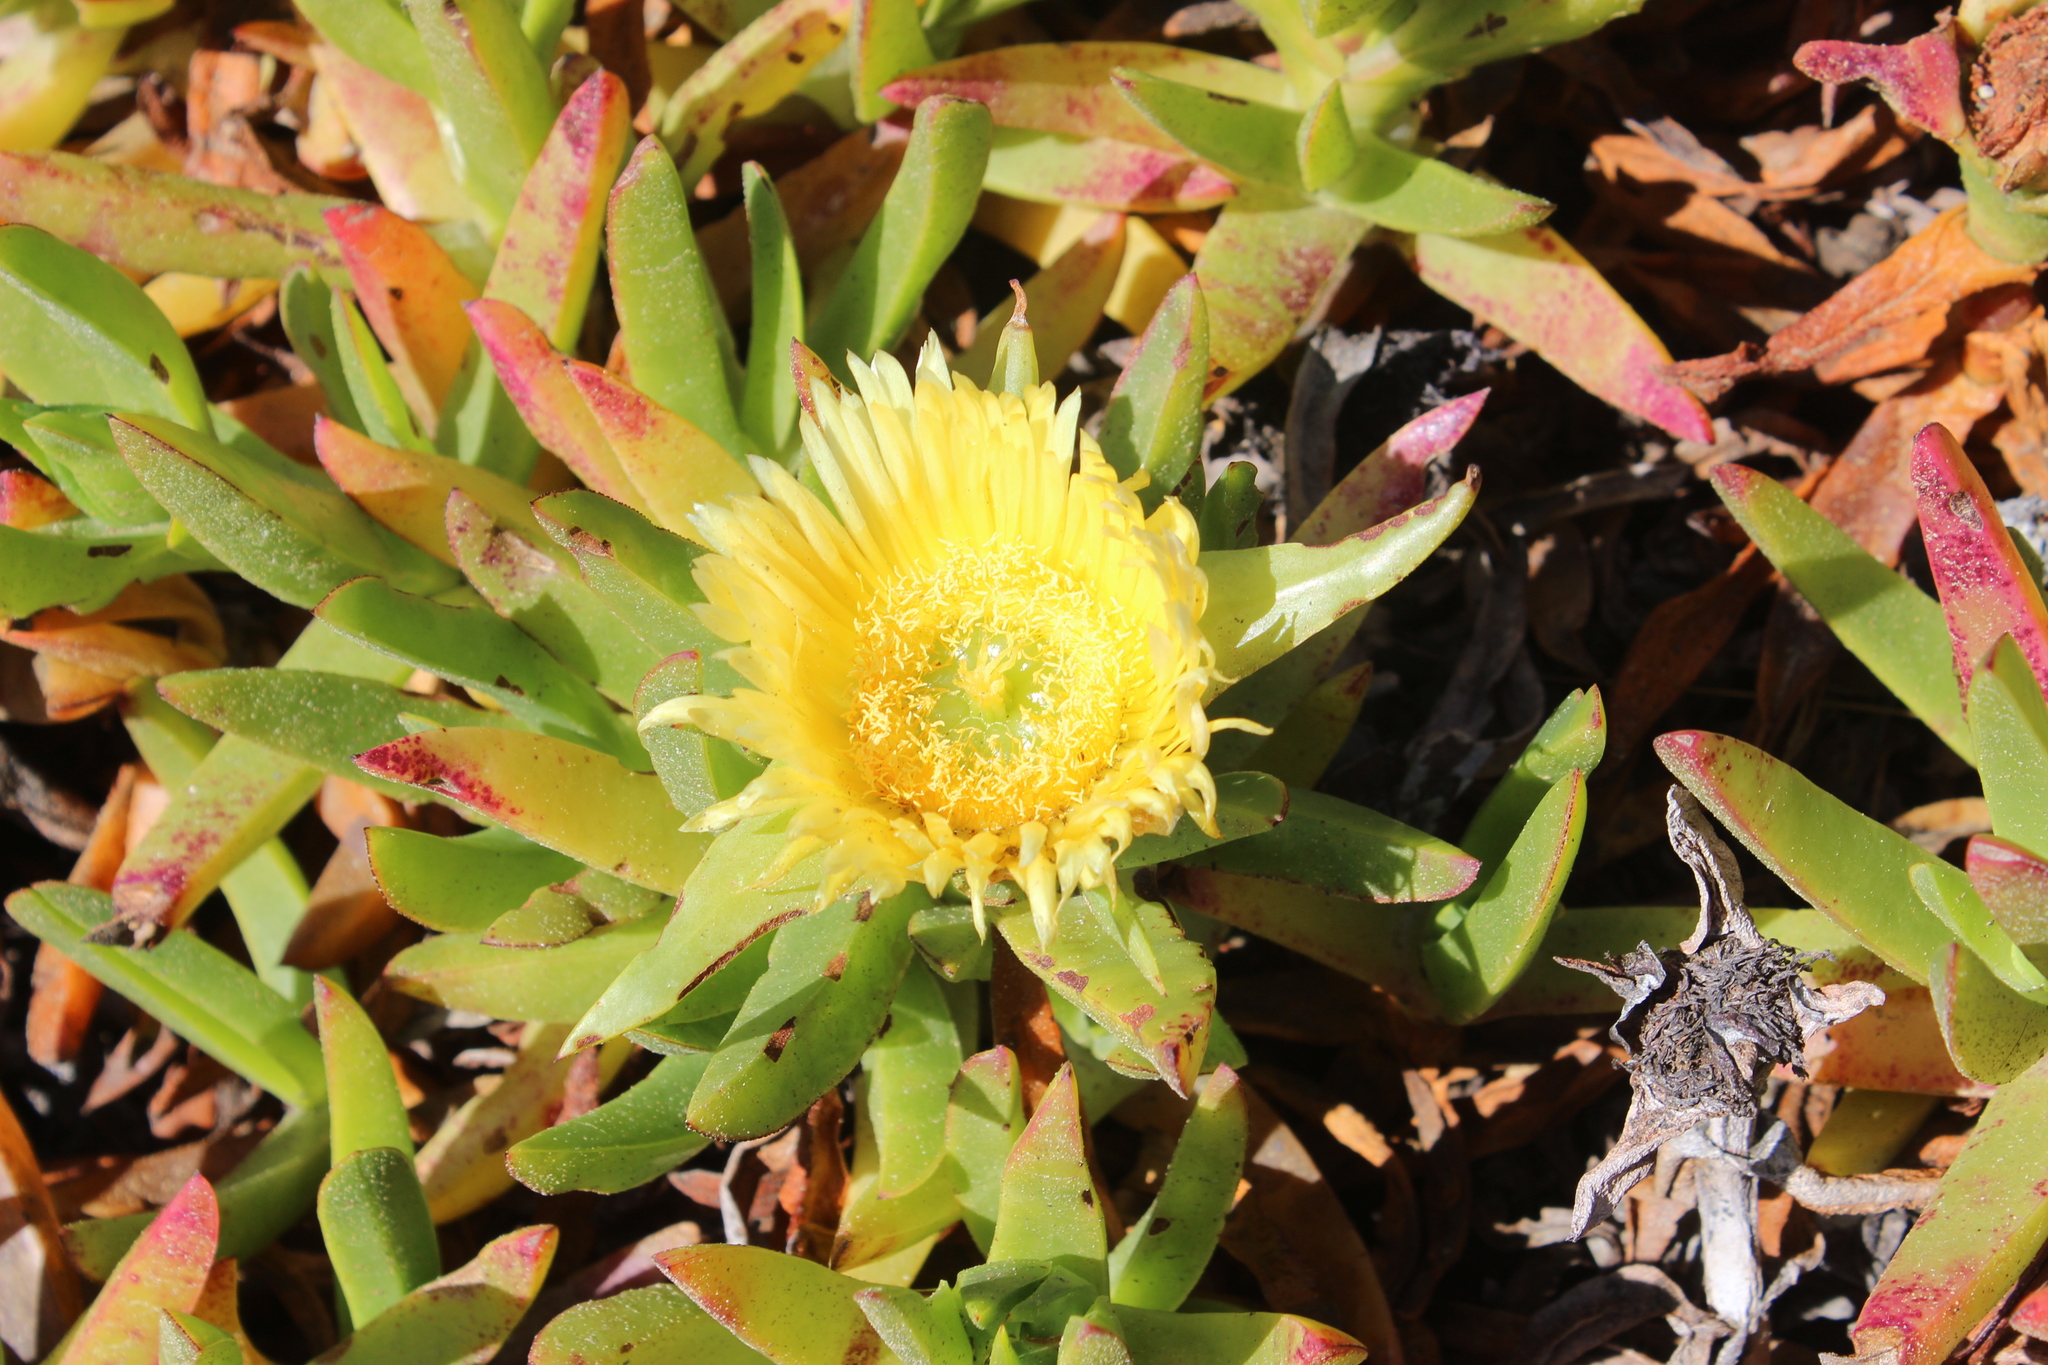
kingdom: Plantae
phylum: Tracheophyta
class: Magnoliopsida
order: Caryophyllales
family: Aizoaceae
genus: Carpobrotus
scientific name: Carpobrotus edulis
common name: Hottentot-fig
